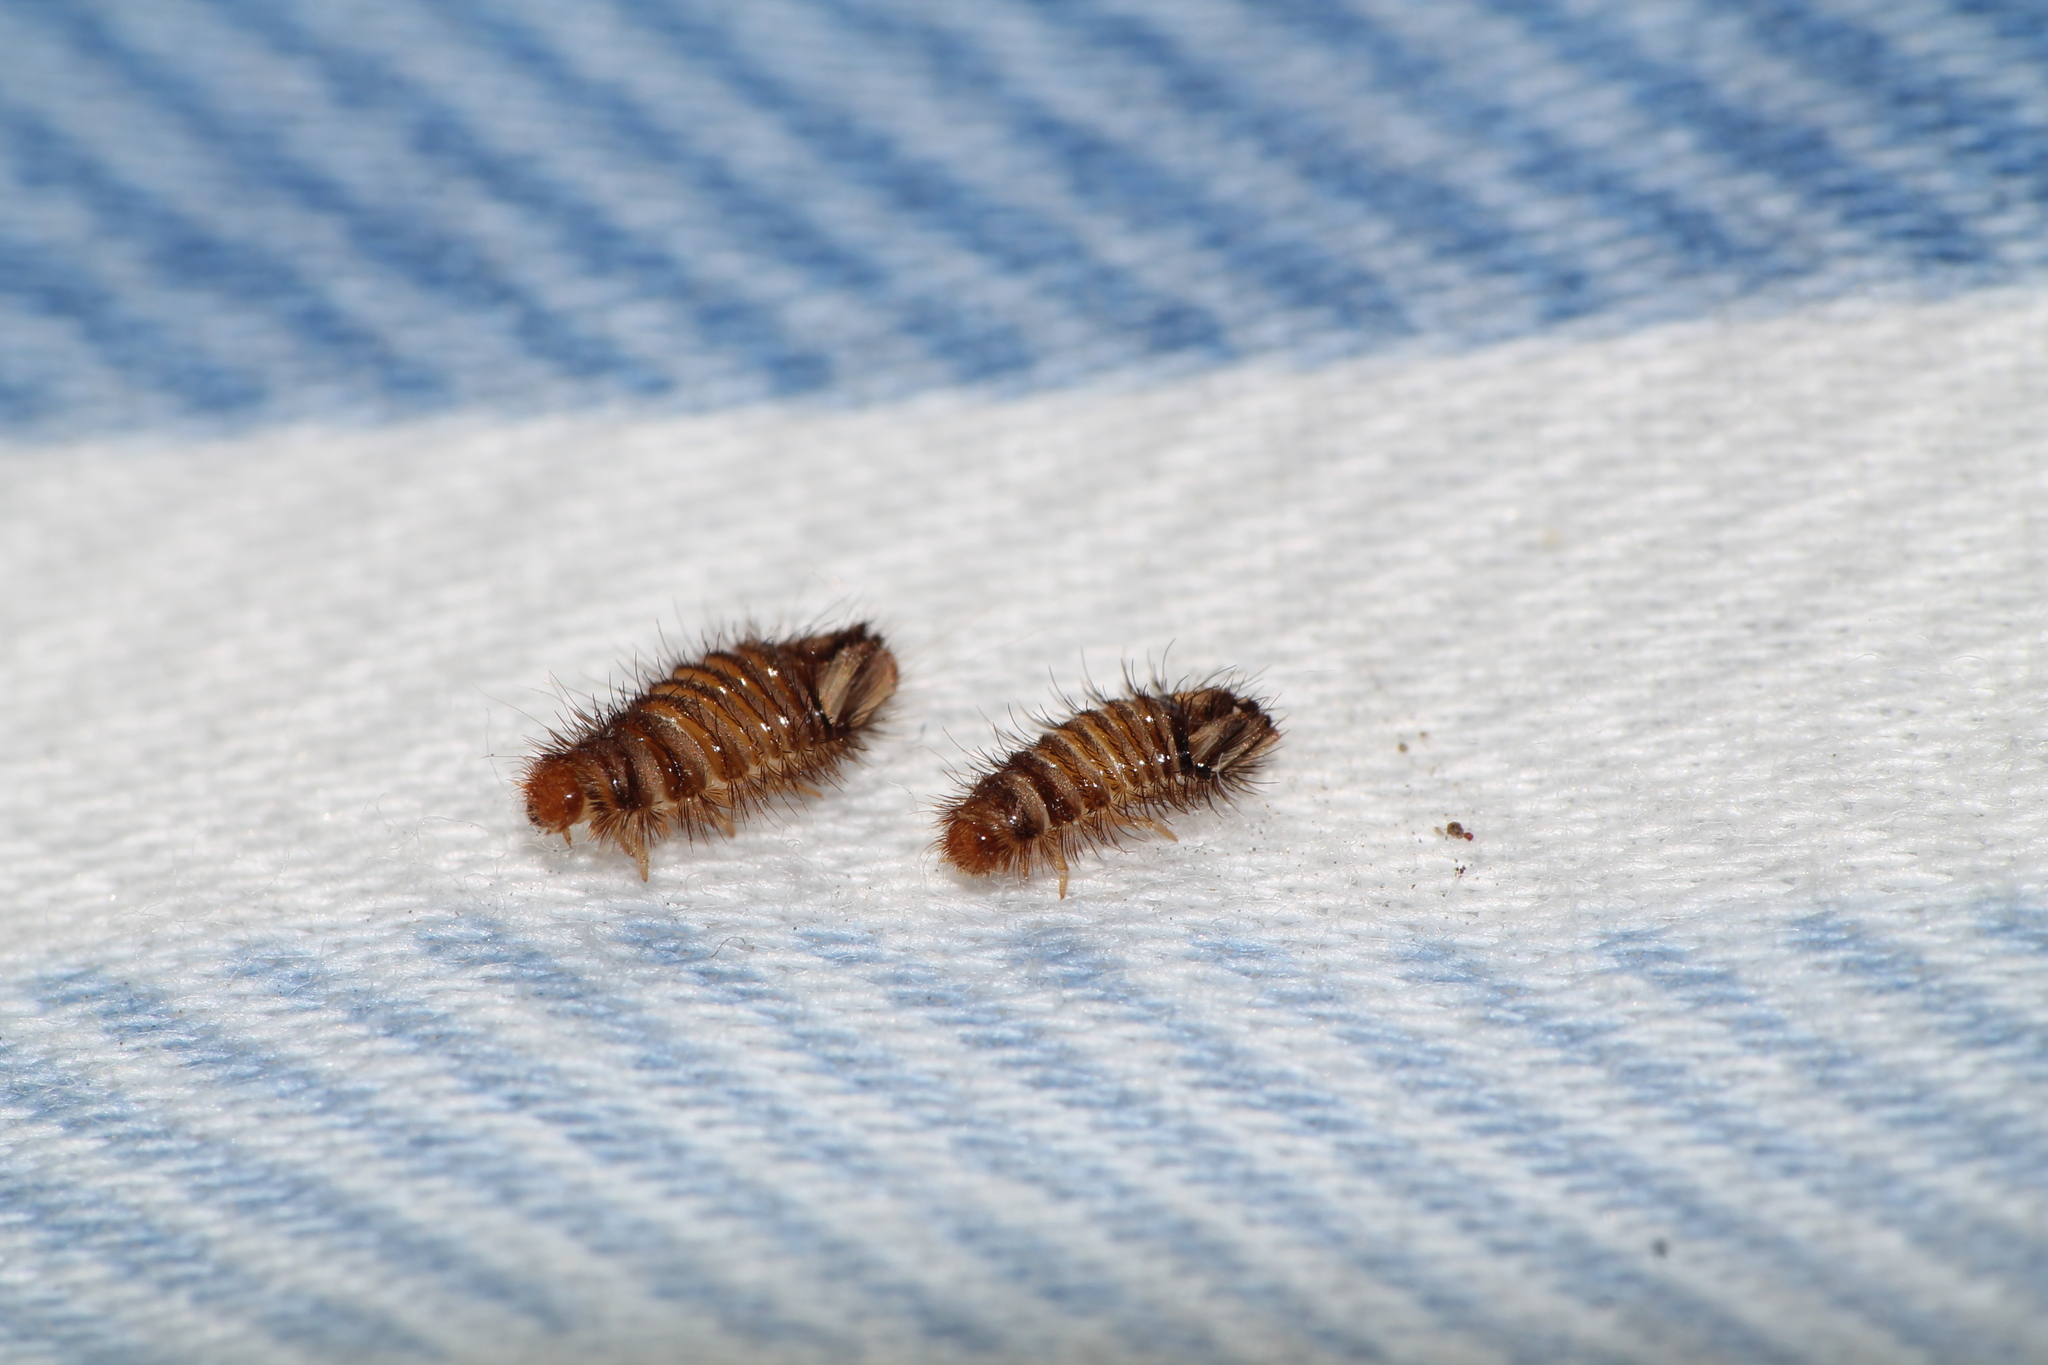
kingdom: Animalia
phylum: Arthropoda
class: Insecta
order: Coleoptera
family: Dermestidae
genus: Anthrenus
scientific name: Anthrenus verbasci
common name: Varied carpet beetle
